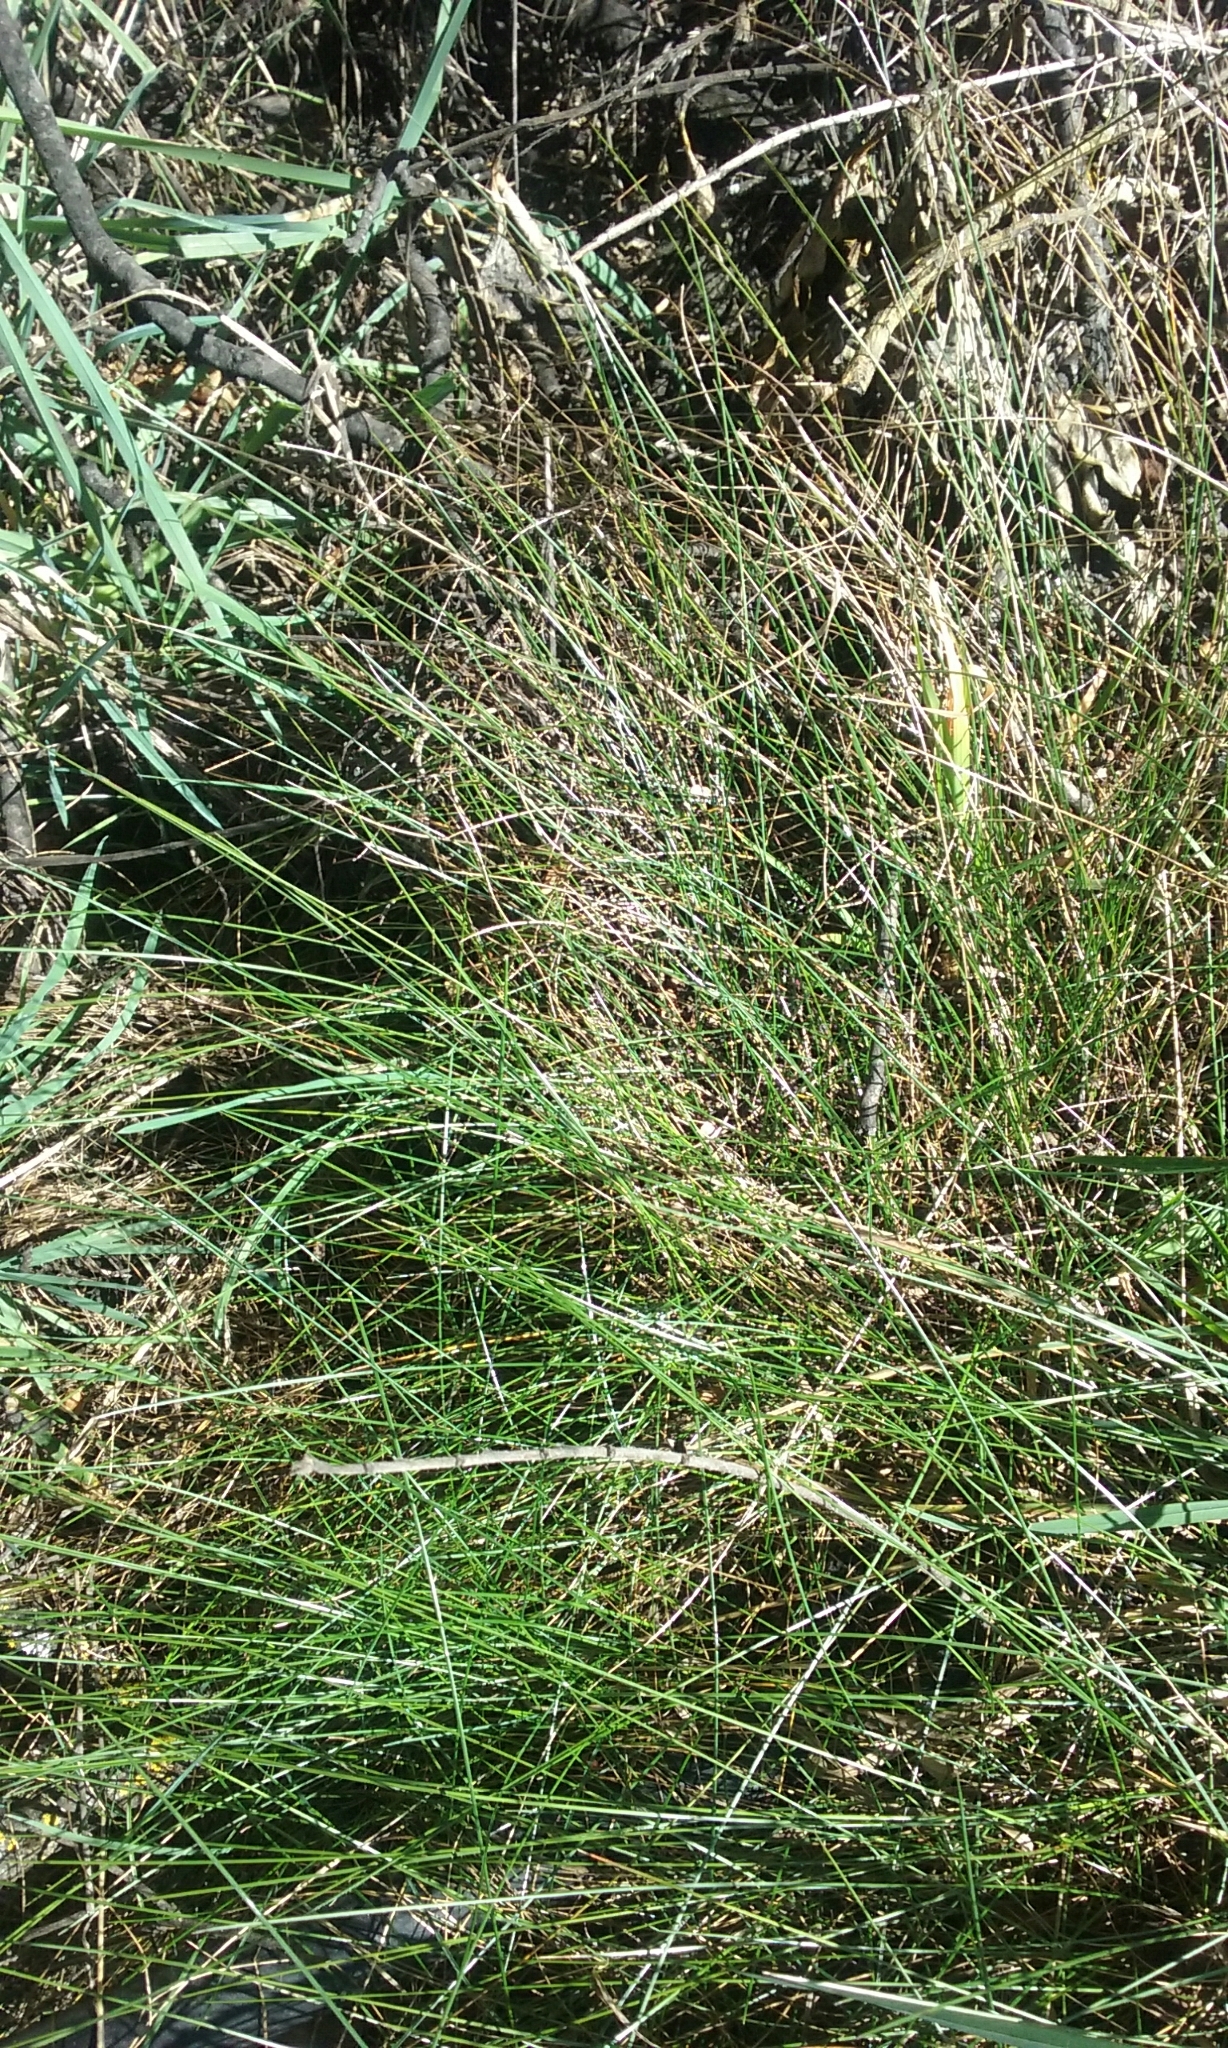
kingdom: Plantae
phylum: Tracheophyta
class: Liliopsida
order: Poales
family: Poaceae
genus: Festuca
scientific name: Festuca rubra
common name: Red fescue
